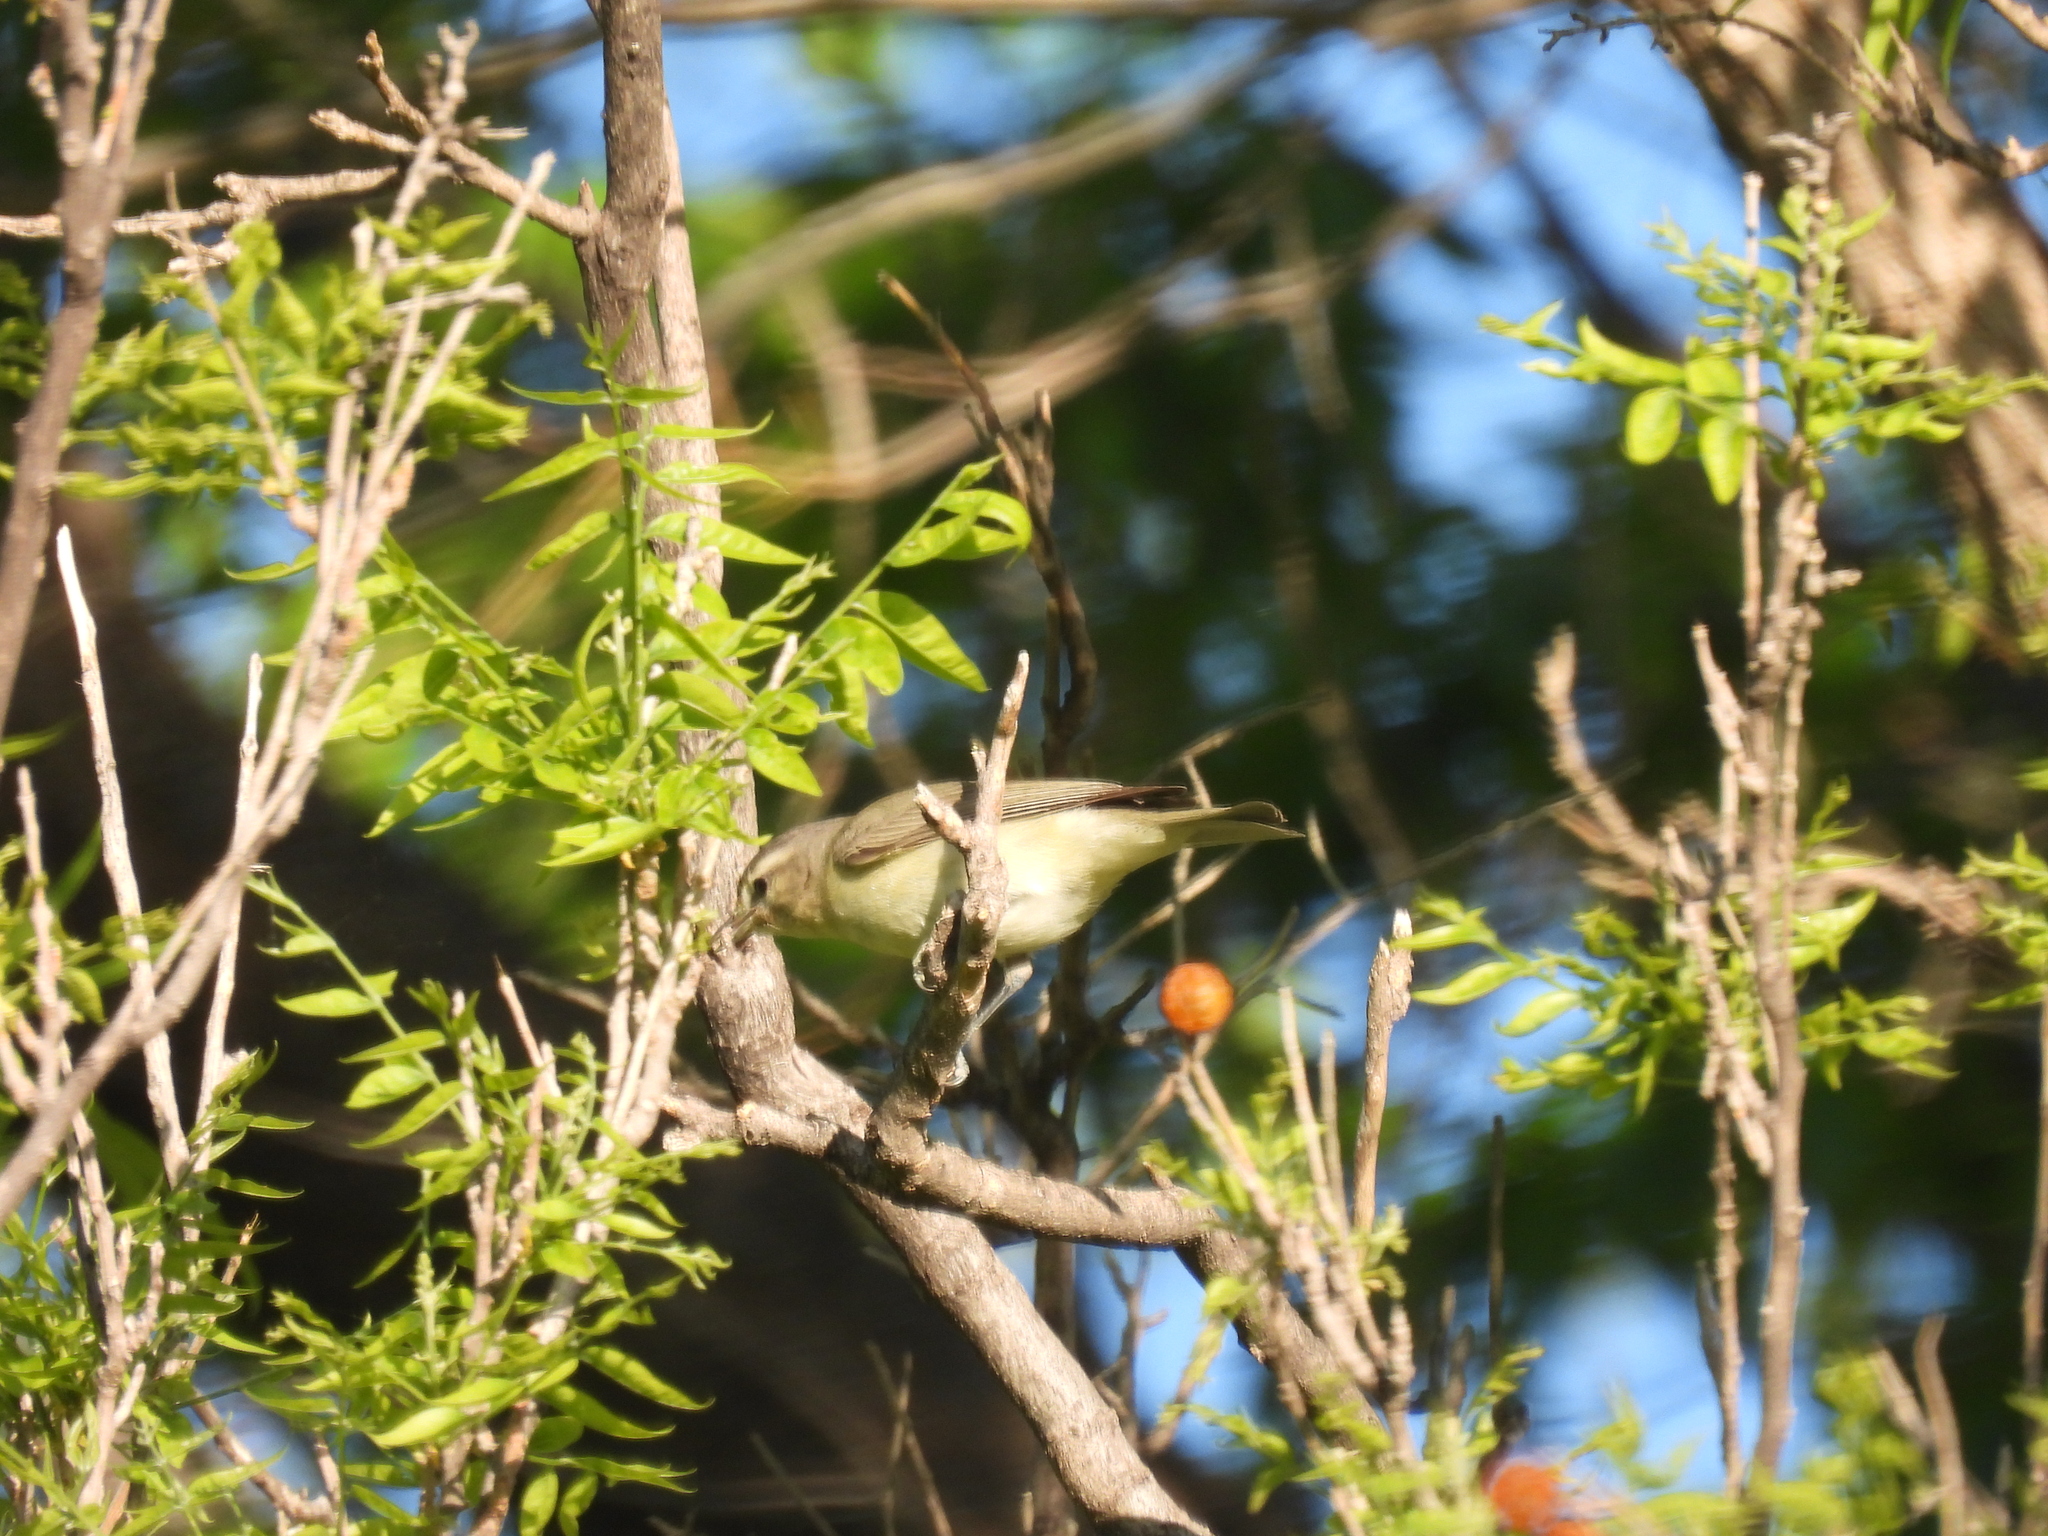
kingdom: Animalia
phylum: Chordata
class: Aves
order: Passeriformes
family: Vireonidae
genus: Vireo
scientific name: Vireo gilvus
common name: Warbling vireo
